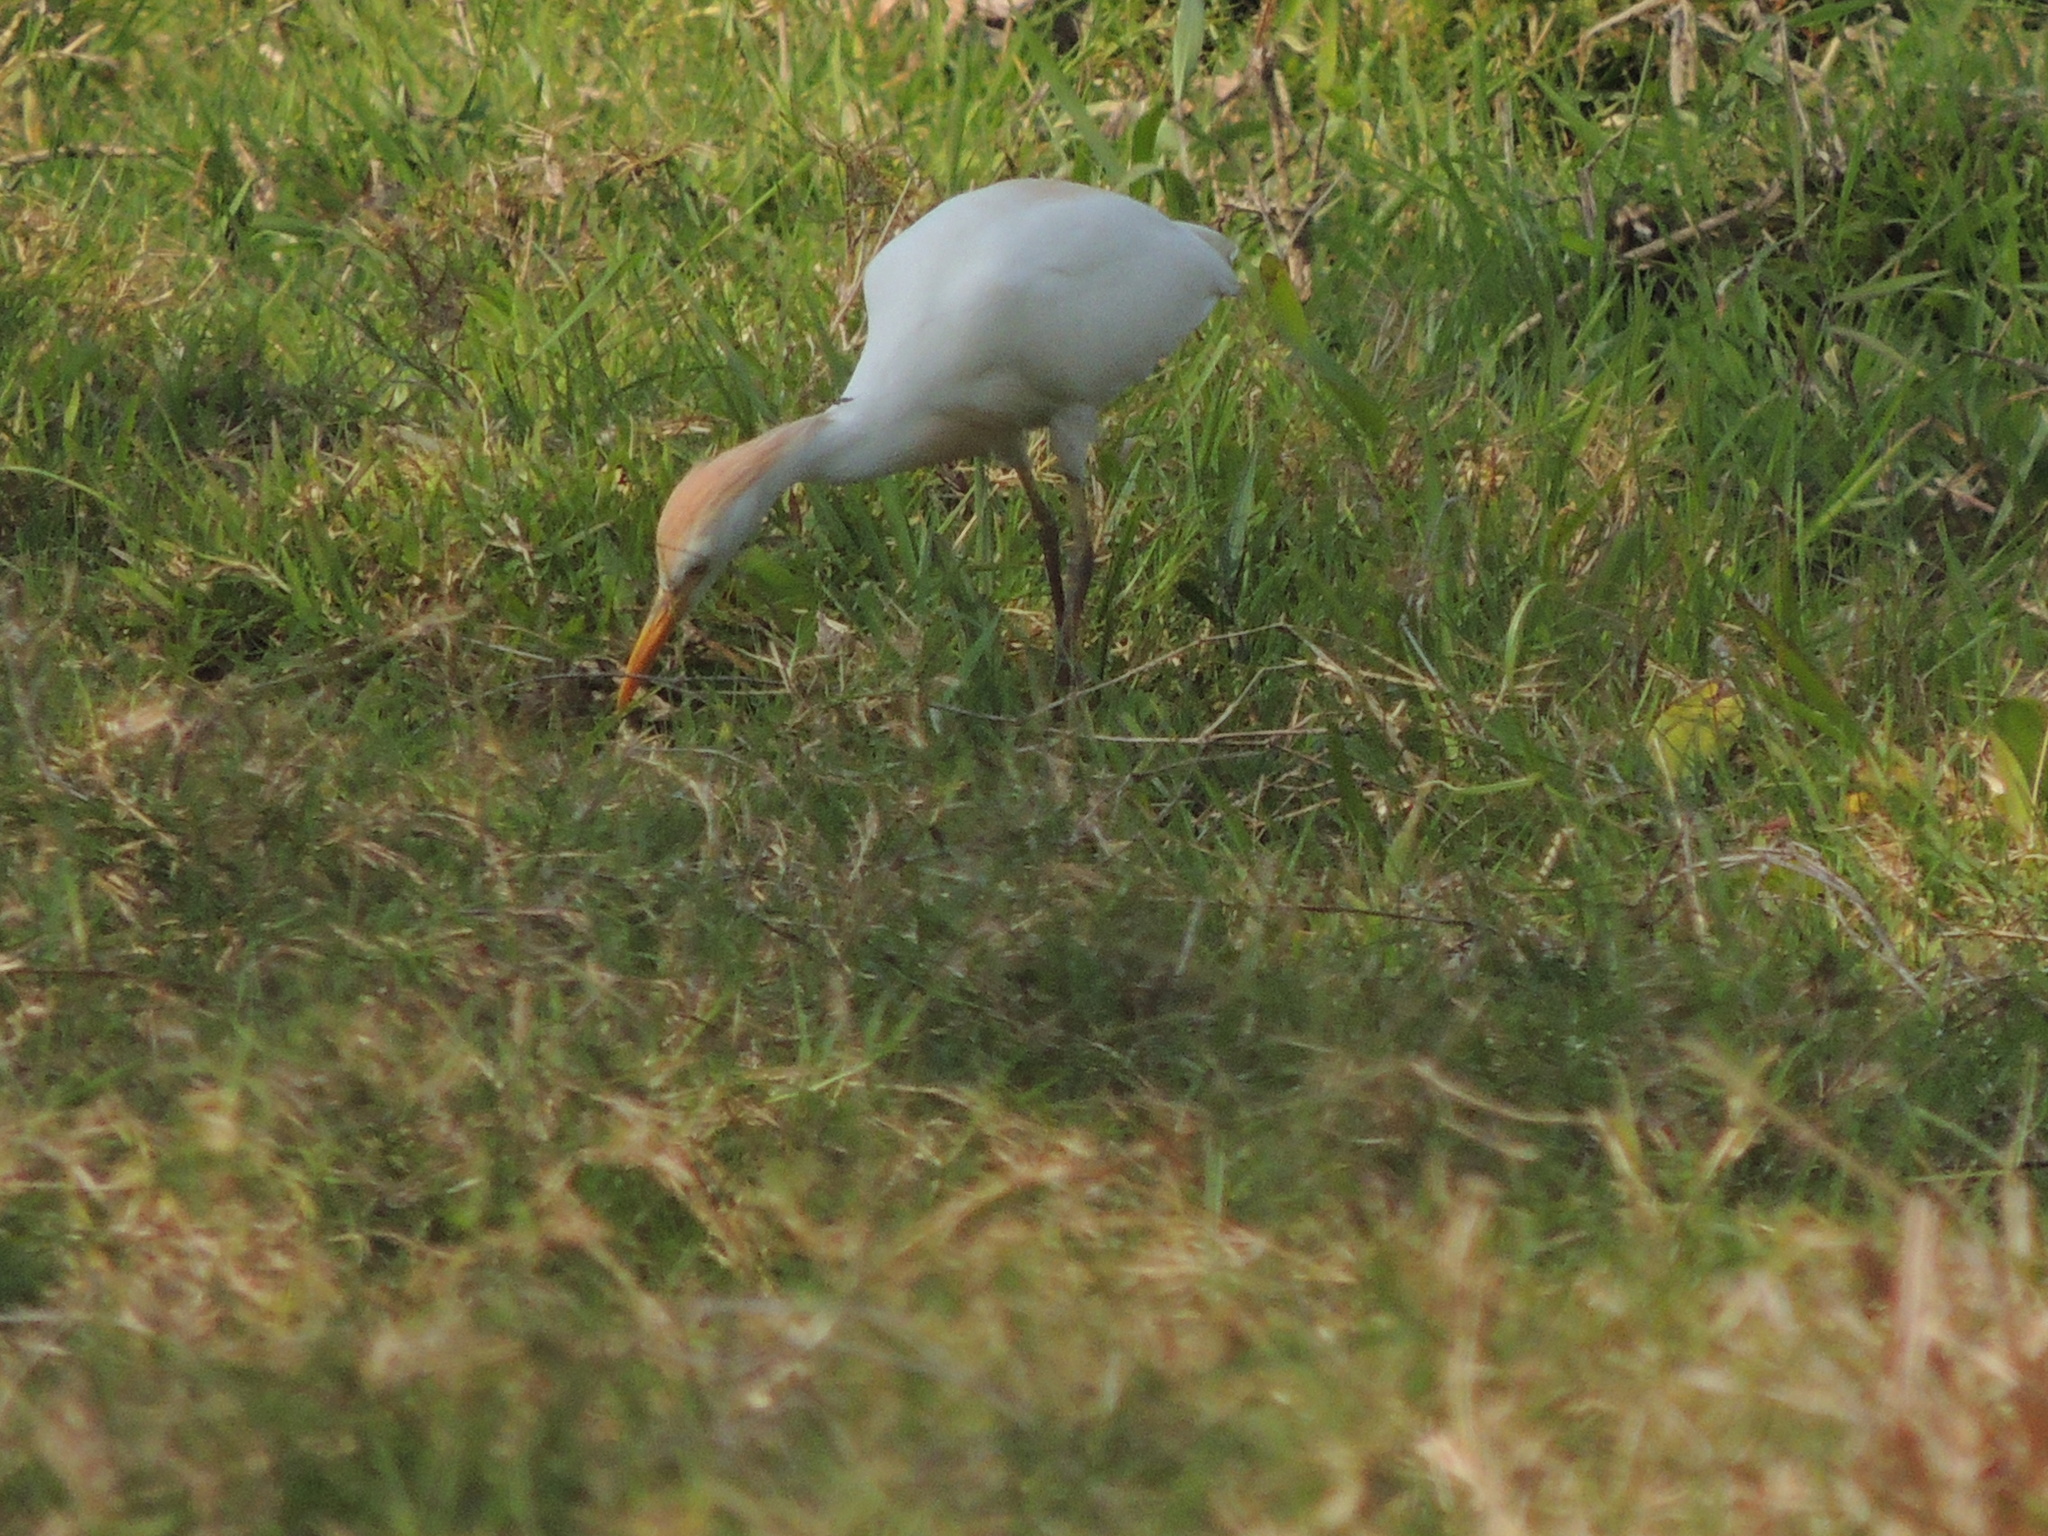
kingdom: Animalia
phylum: Chordata
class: Aves
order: Pelecaniformes
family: Ardeidae
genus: Bubulcus
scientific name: Bubulcus ibis
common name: Cattle egret
